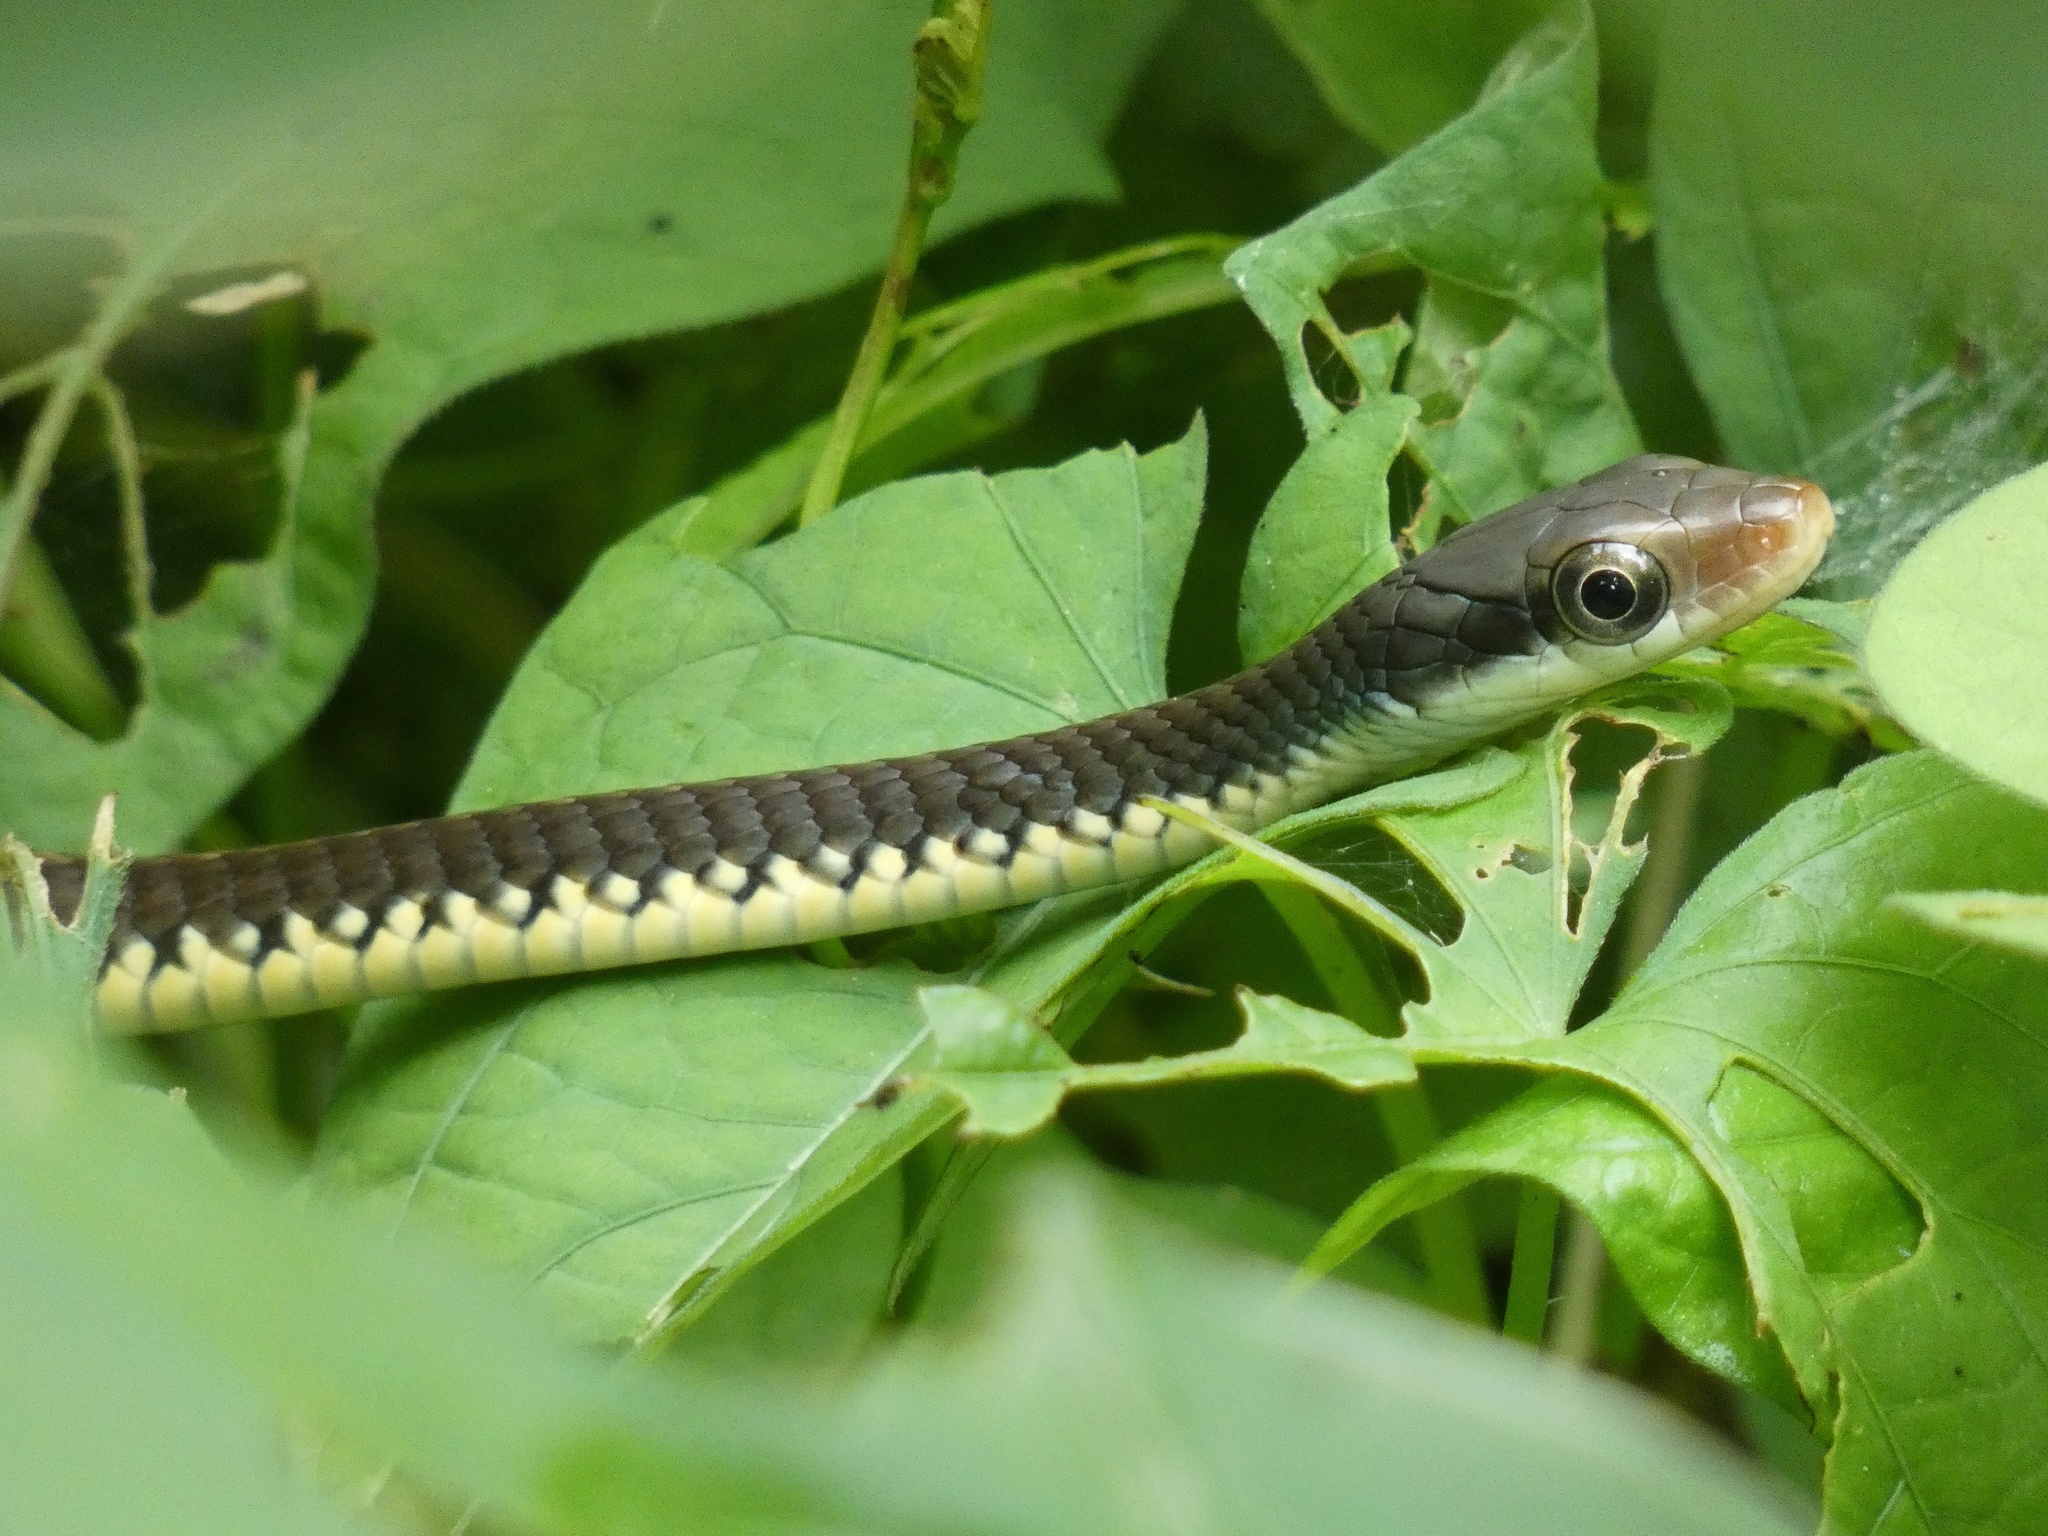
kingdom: Animalia
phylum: Chordata
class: Squamata
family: Colubridae
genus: Chironius
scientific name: Chironius flavopictus
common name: Sipo
